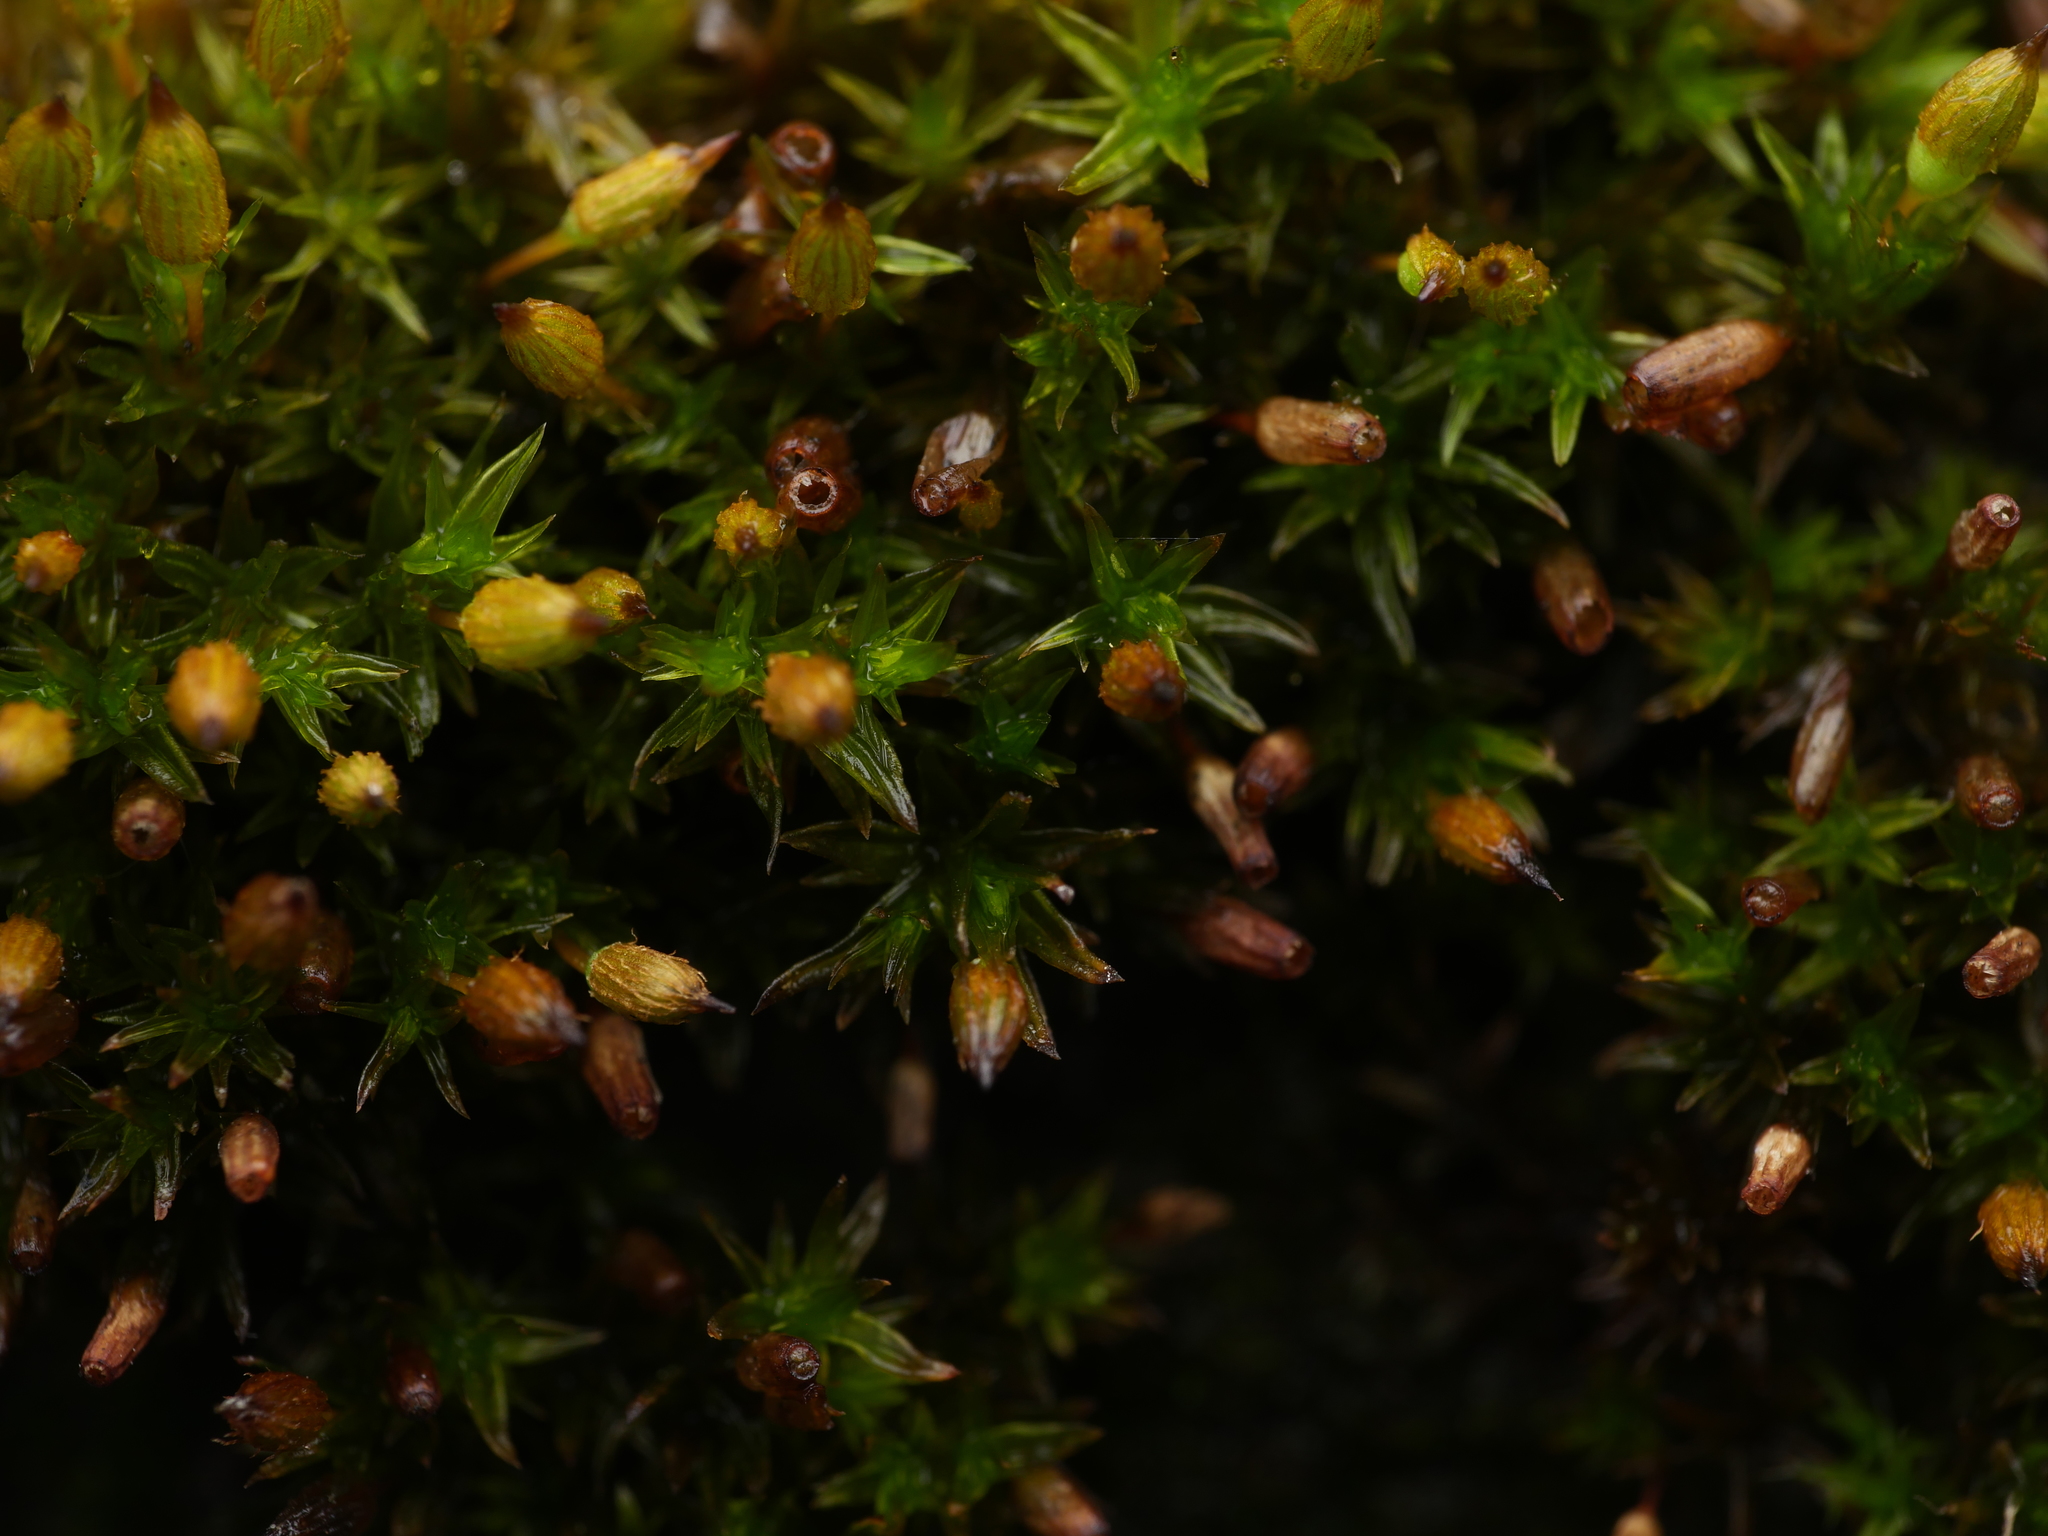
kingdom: Plantae
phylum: Bryophyta
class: Bryopsida
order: Orthotrichales
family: Orthotrichaceae
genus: Orthotrichum
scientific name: Orthotrichum anomalum
